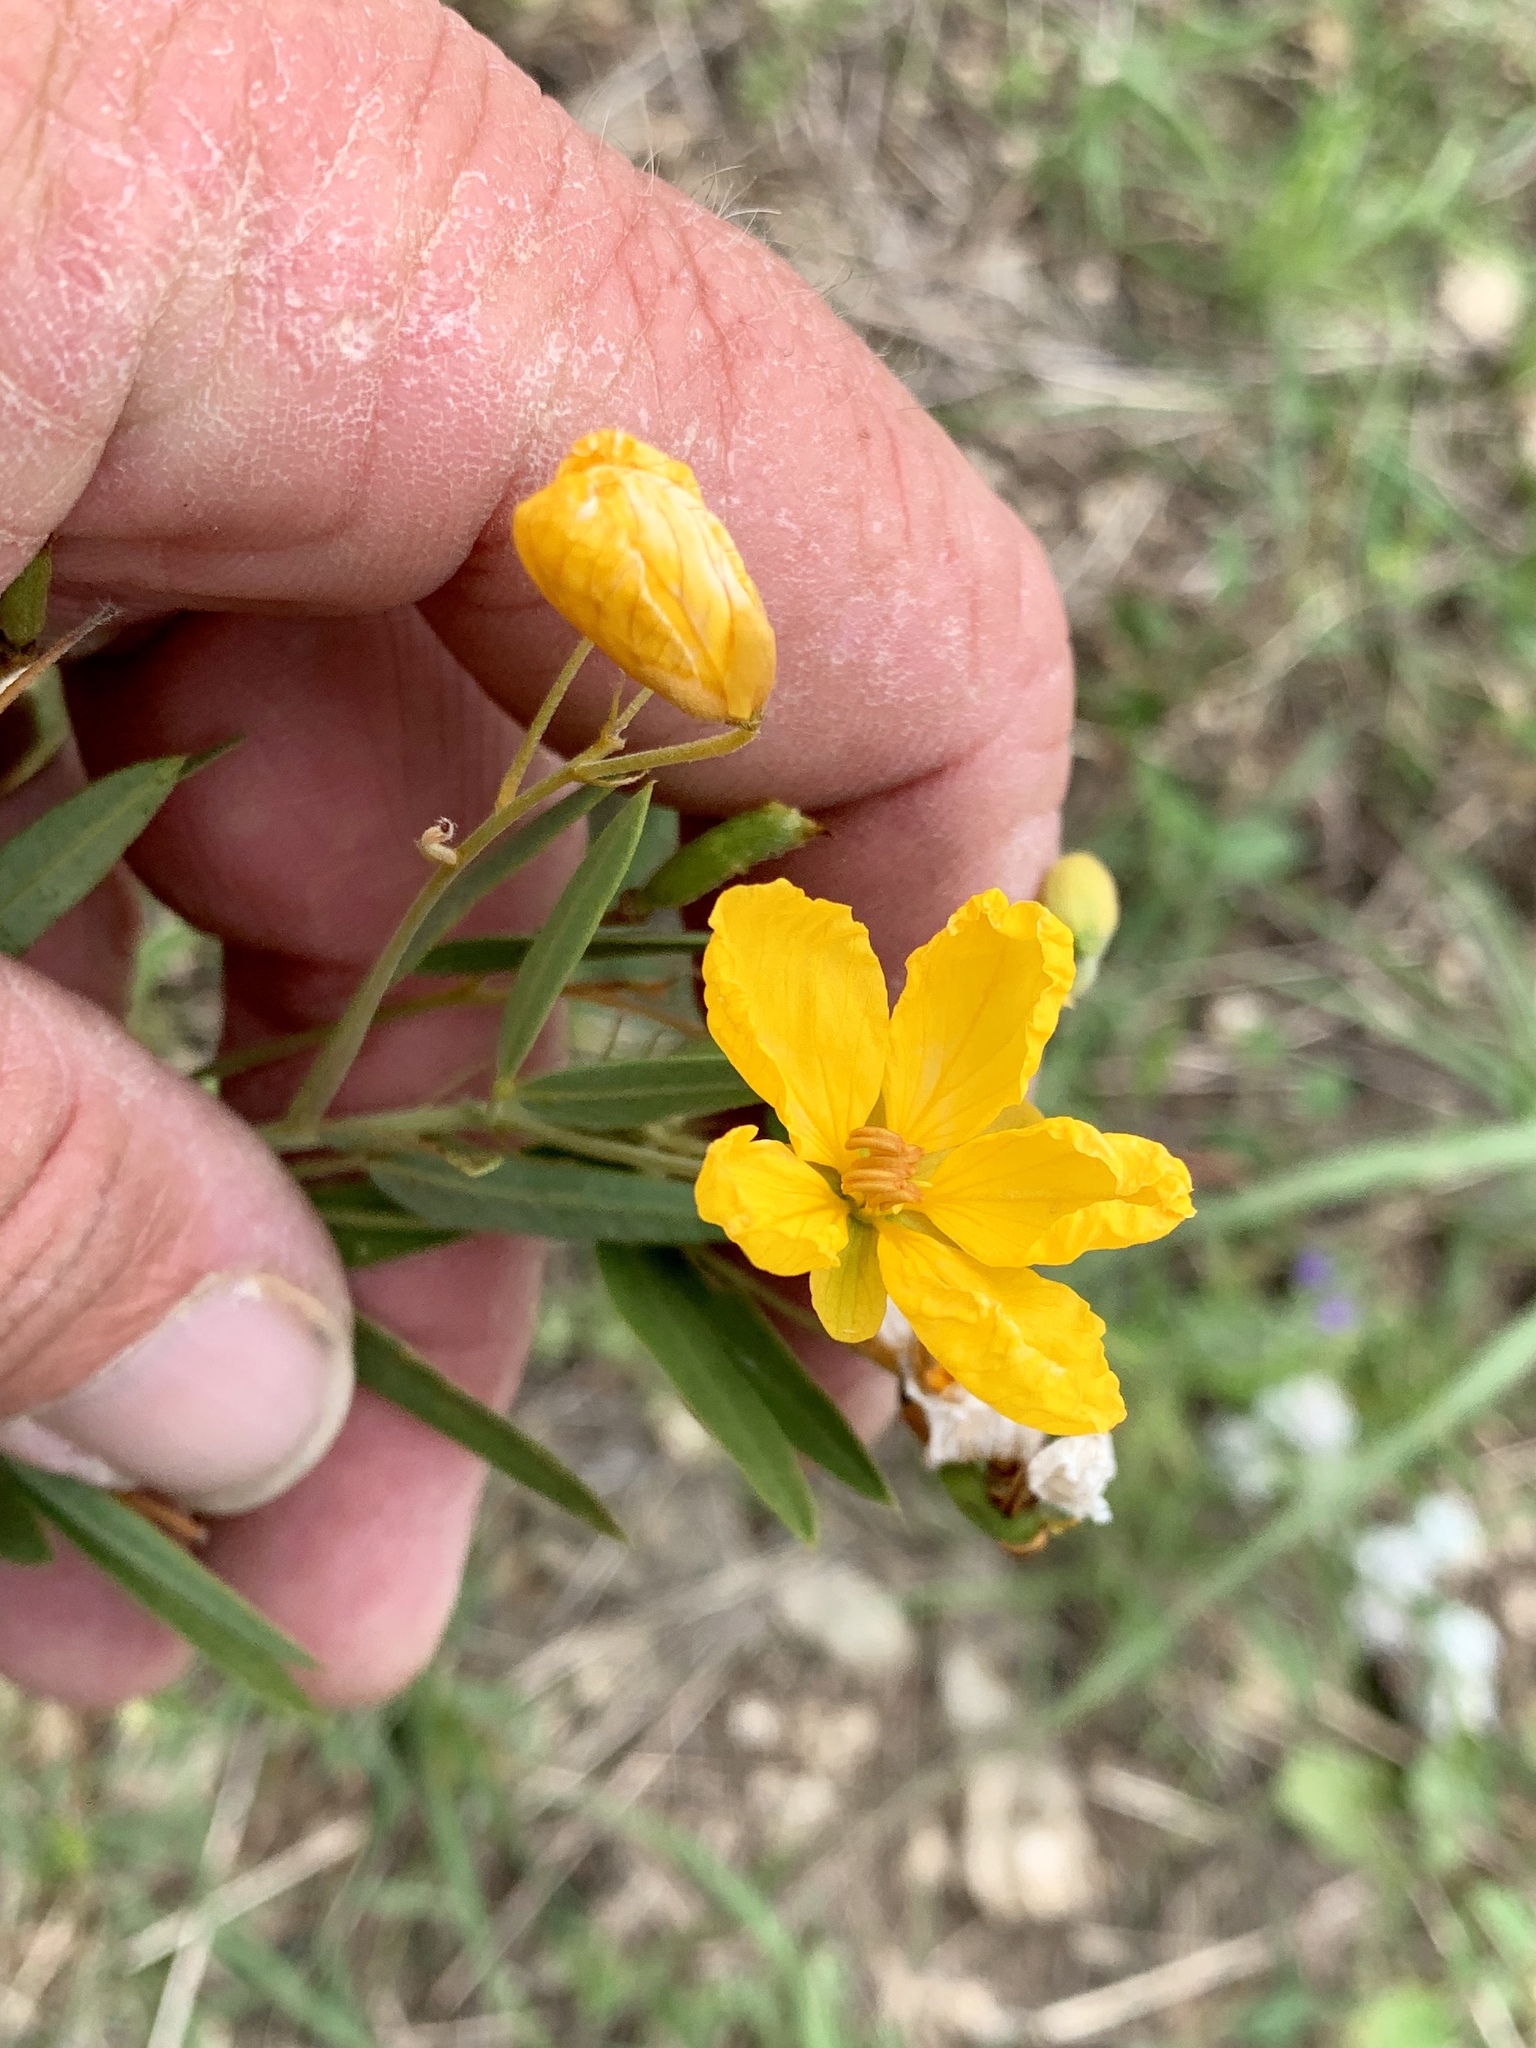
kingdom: Plantae
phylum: Tracheophyta
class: Magnoliopsida
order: Fabales
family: Fabaceae
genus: Senna
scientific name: Senna roemeriana
